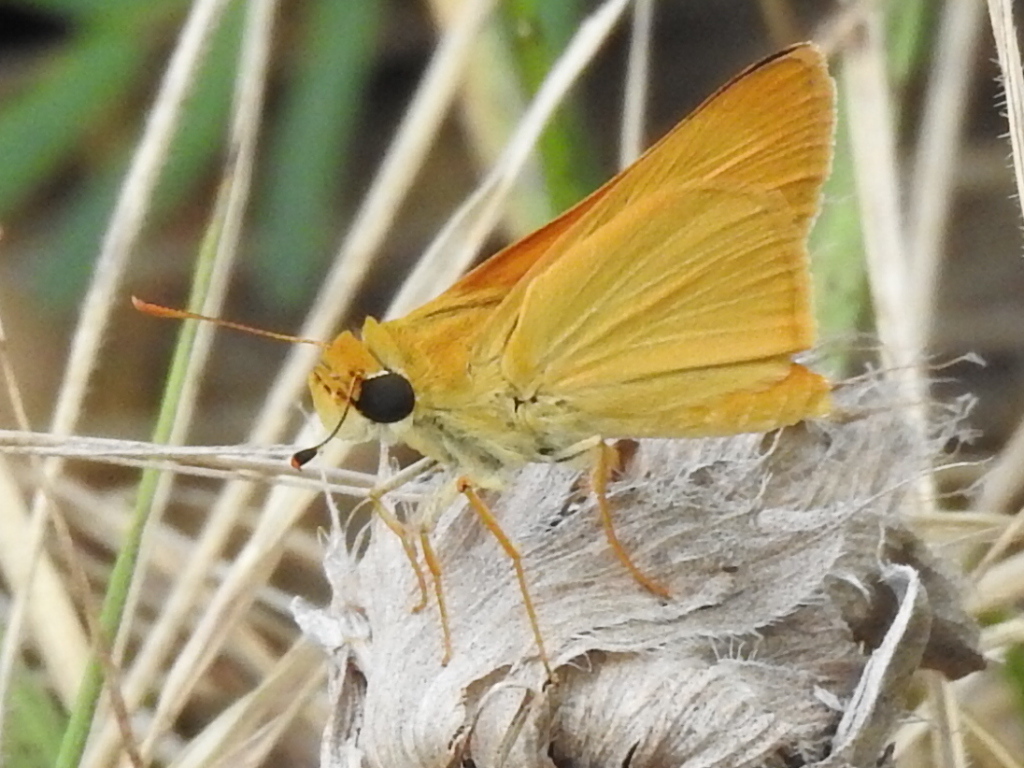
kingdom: Animalia
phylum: Arthropoda
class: Insecta
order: Lepidoptera
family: Hesperiidae
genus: Atrytone
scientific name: Atrytone delaware
